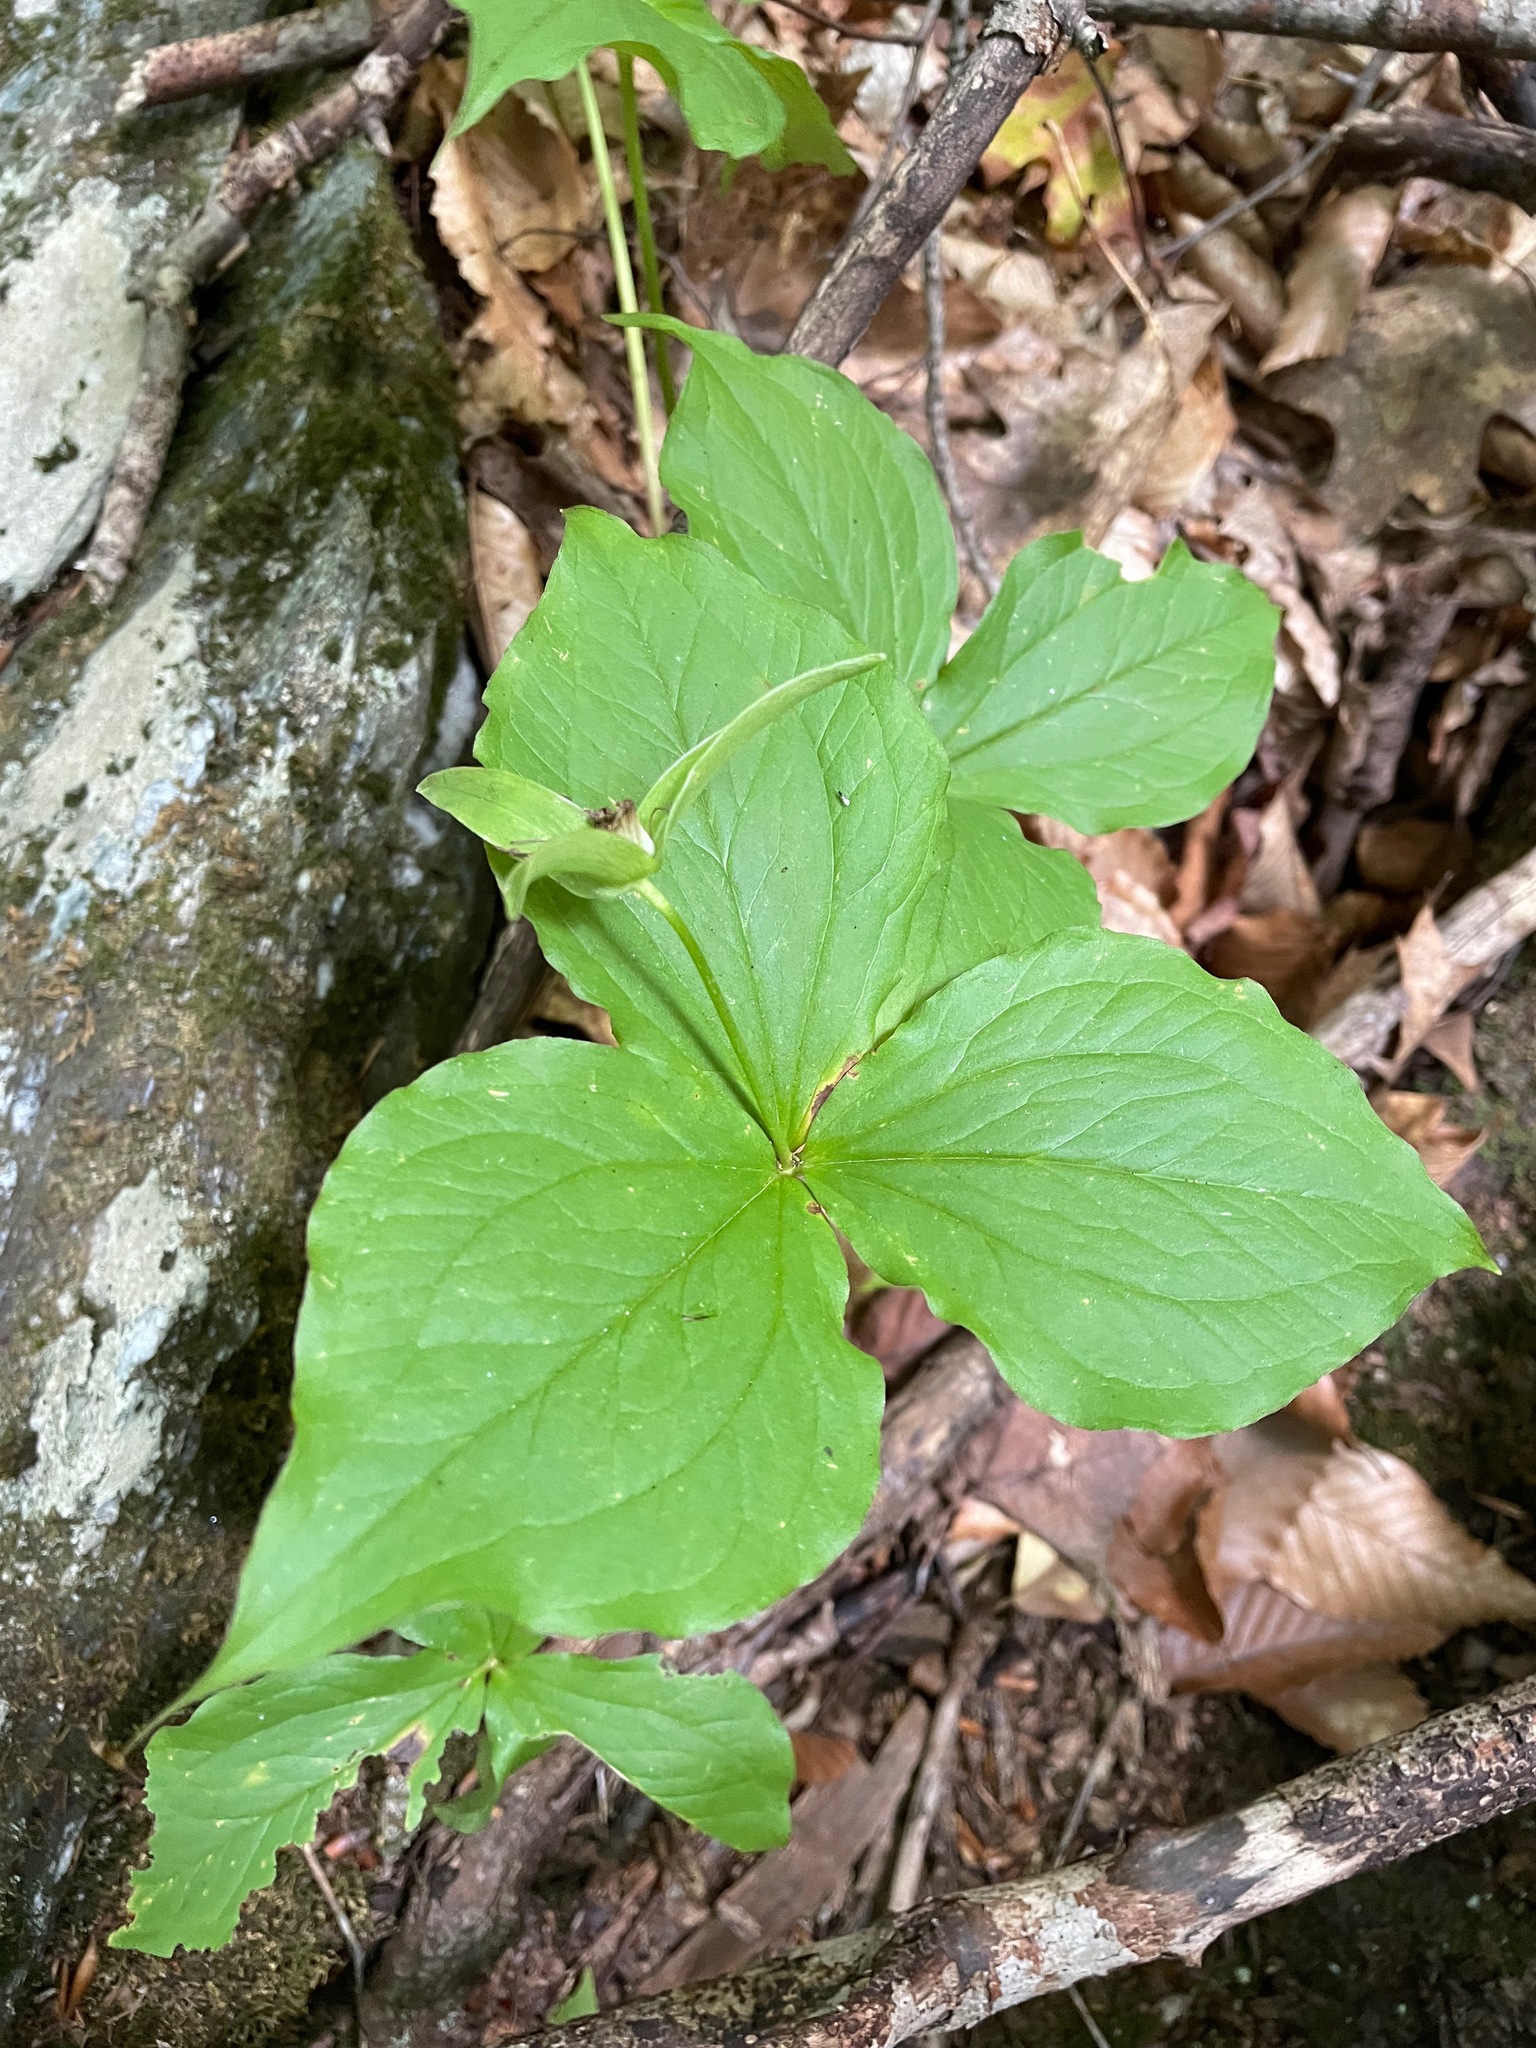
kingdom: Plantae
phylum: Tracheophyta
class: Liliopsida
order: Liliales
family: Melanthiaceae
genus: Trillium
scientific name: Trillium grandiflorum
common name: Great white trillium
